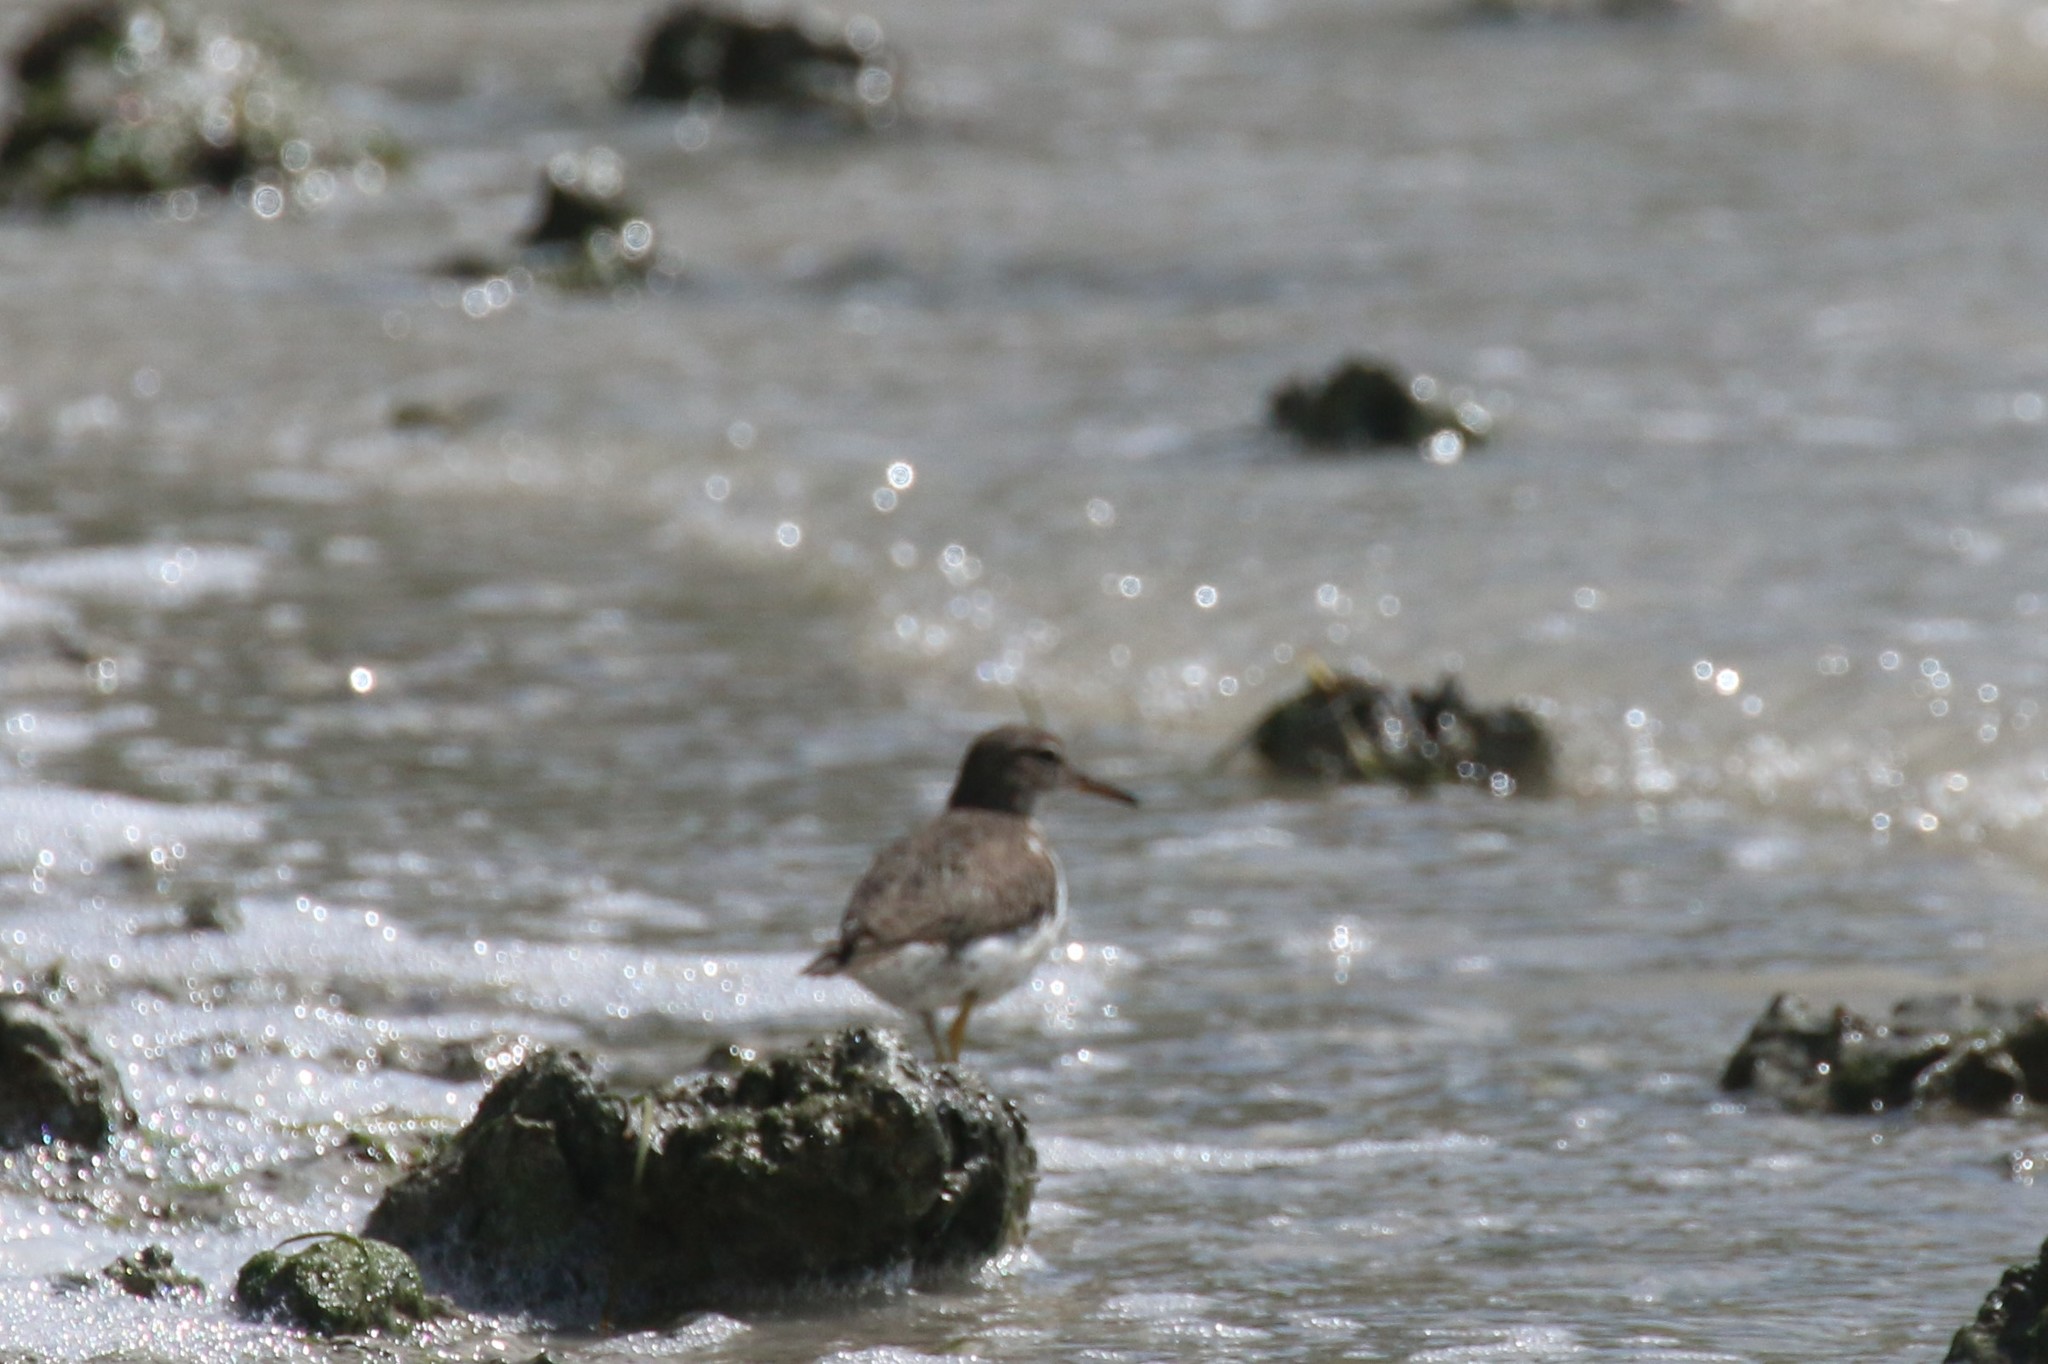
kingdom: Animalia
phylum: Chordata
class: Aves
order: Charadriiformes
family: Scolopacidae
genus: Actitis
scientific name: Actitis macularius
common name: Spotted sandpiper
